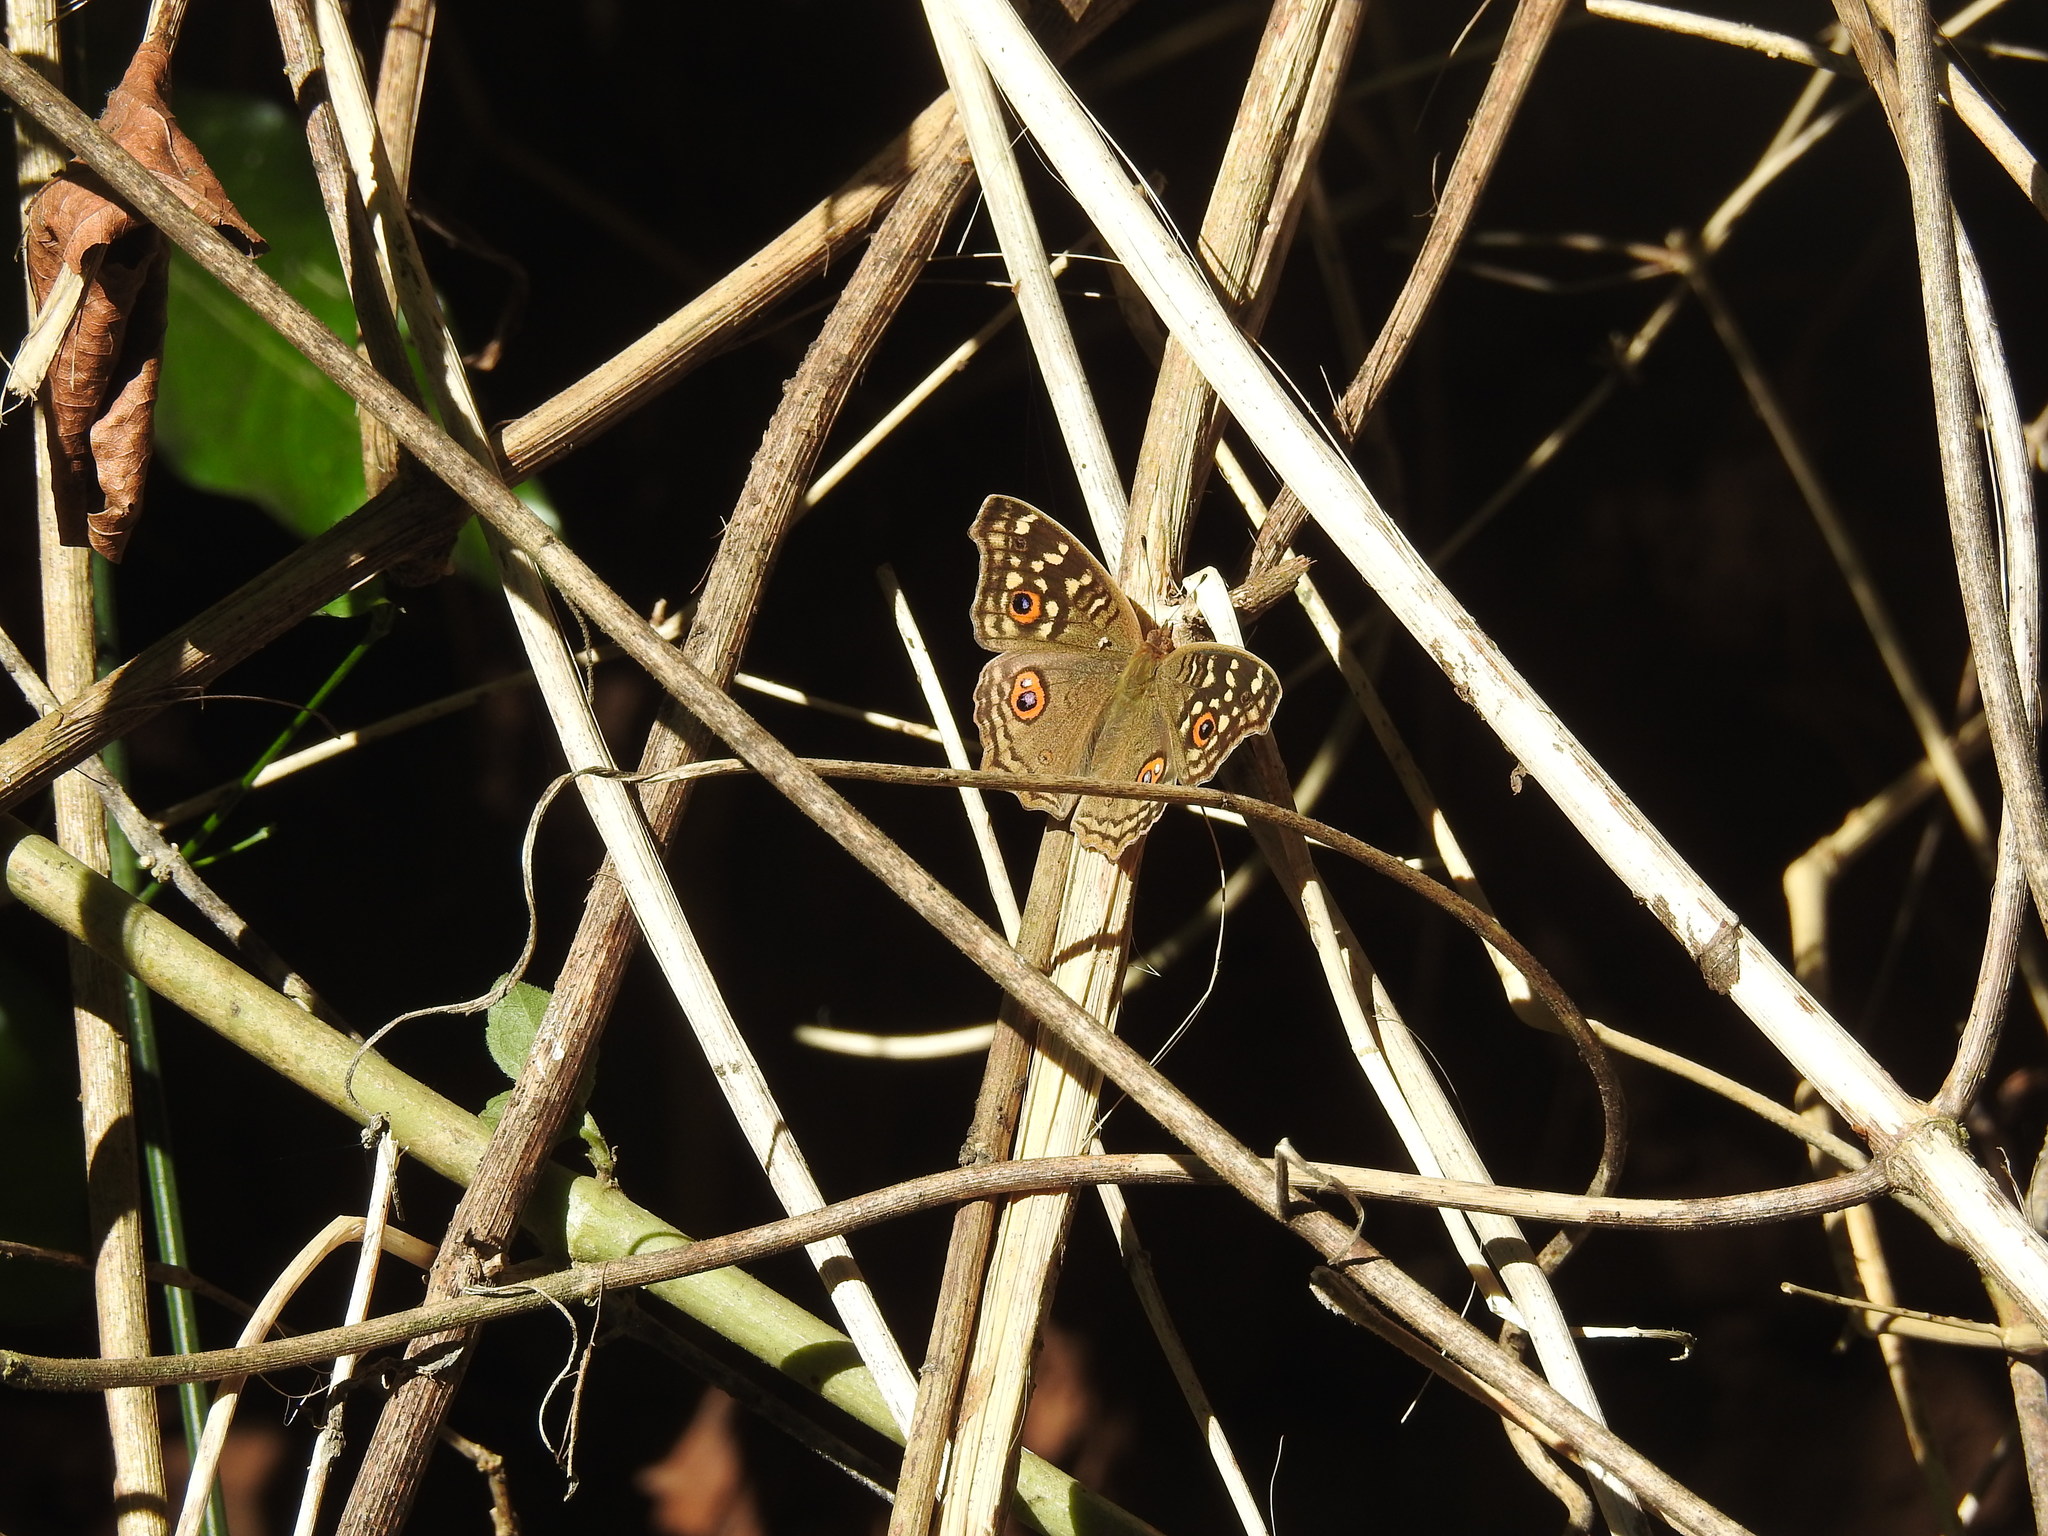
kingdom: Animalia
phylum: Arthropoda
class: Insecta
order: Lepidoptera
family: Nymphalidae
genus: Junonia
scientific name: Junonia lemonias
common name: Lemon pansy
